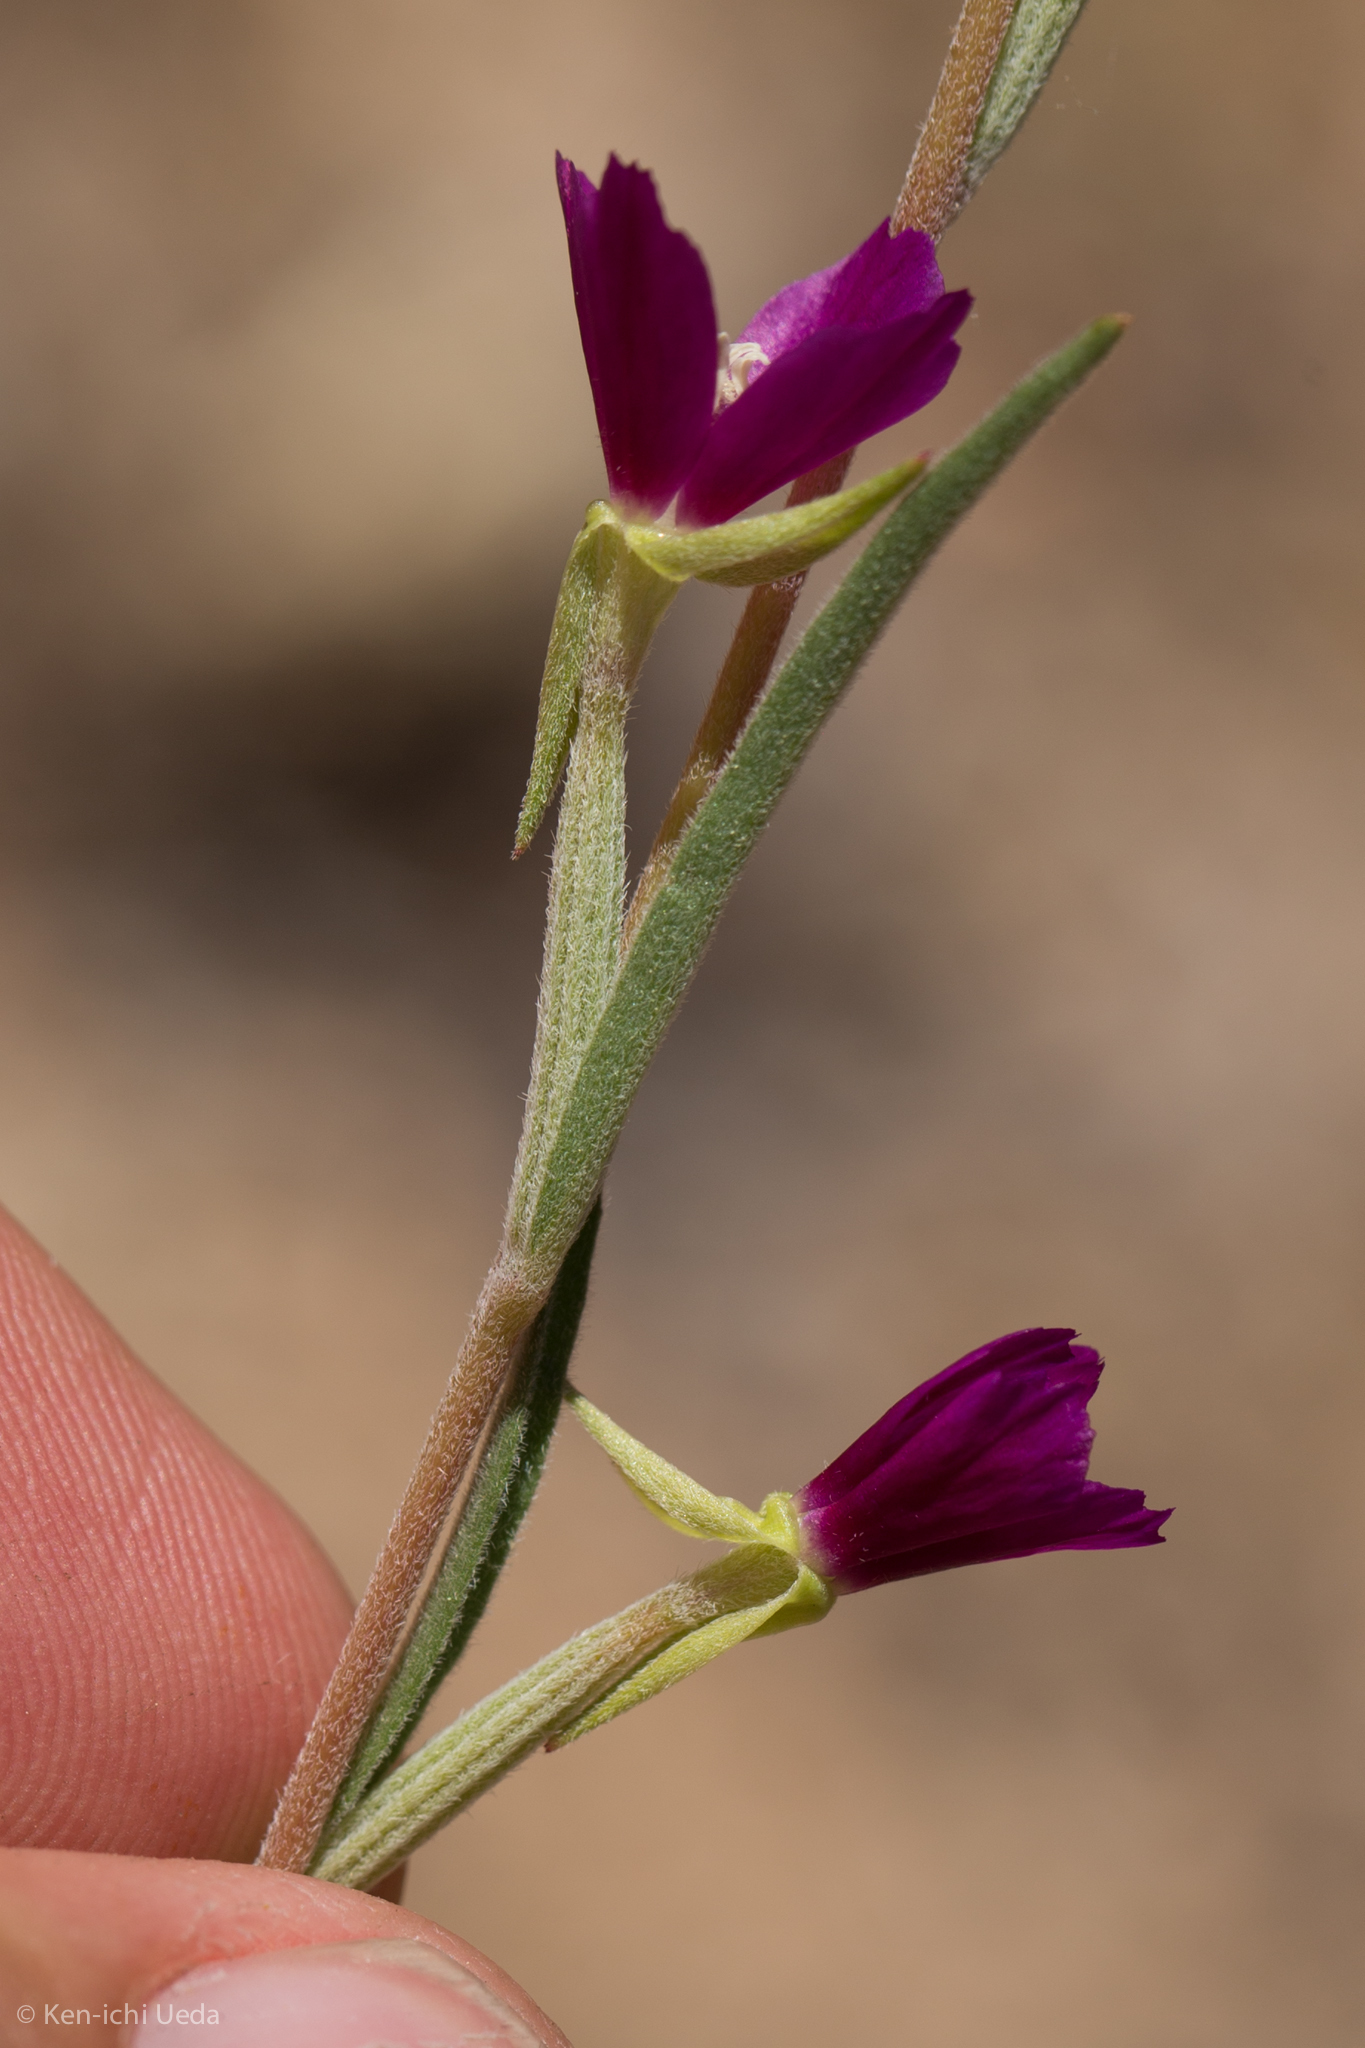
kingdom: Plantae
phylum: Tracheophyta
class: Magnoliopsida
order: Myrtales
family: Onagraceae
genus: Clarkia
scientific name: Clarkia purpurea
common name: Purple clarkia
